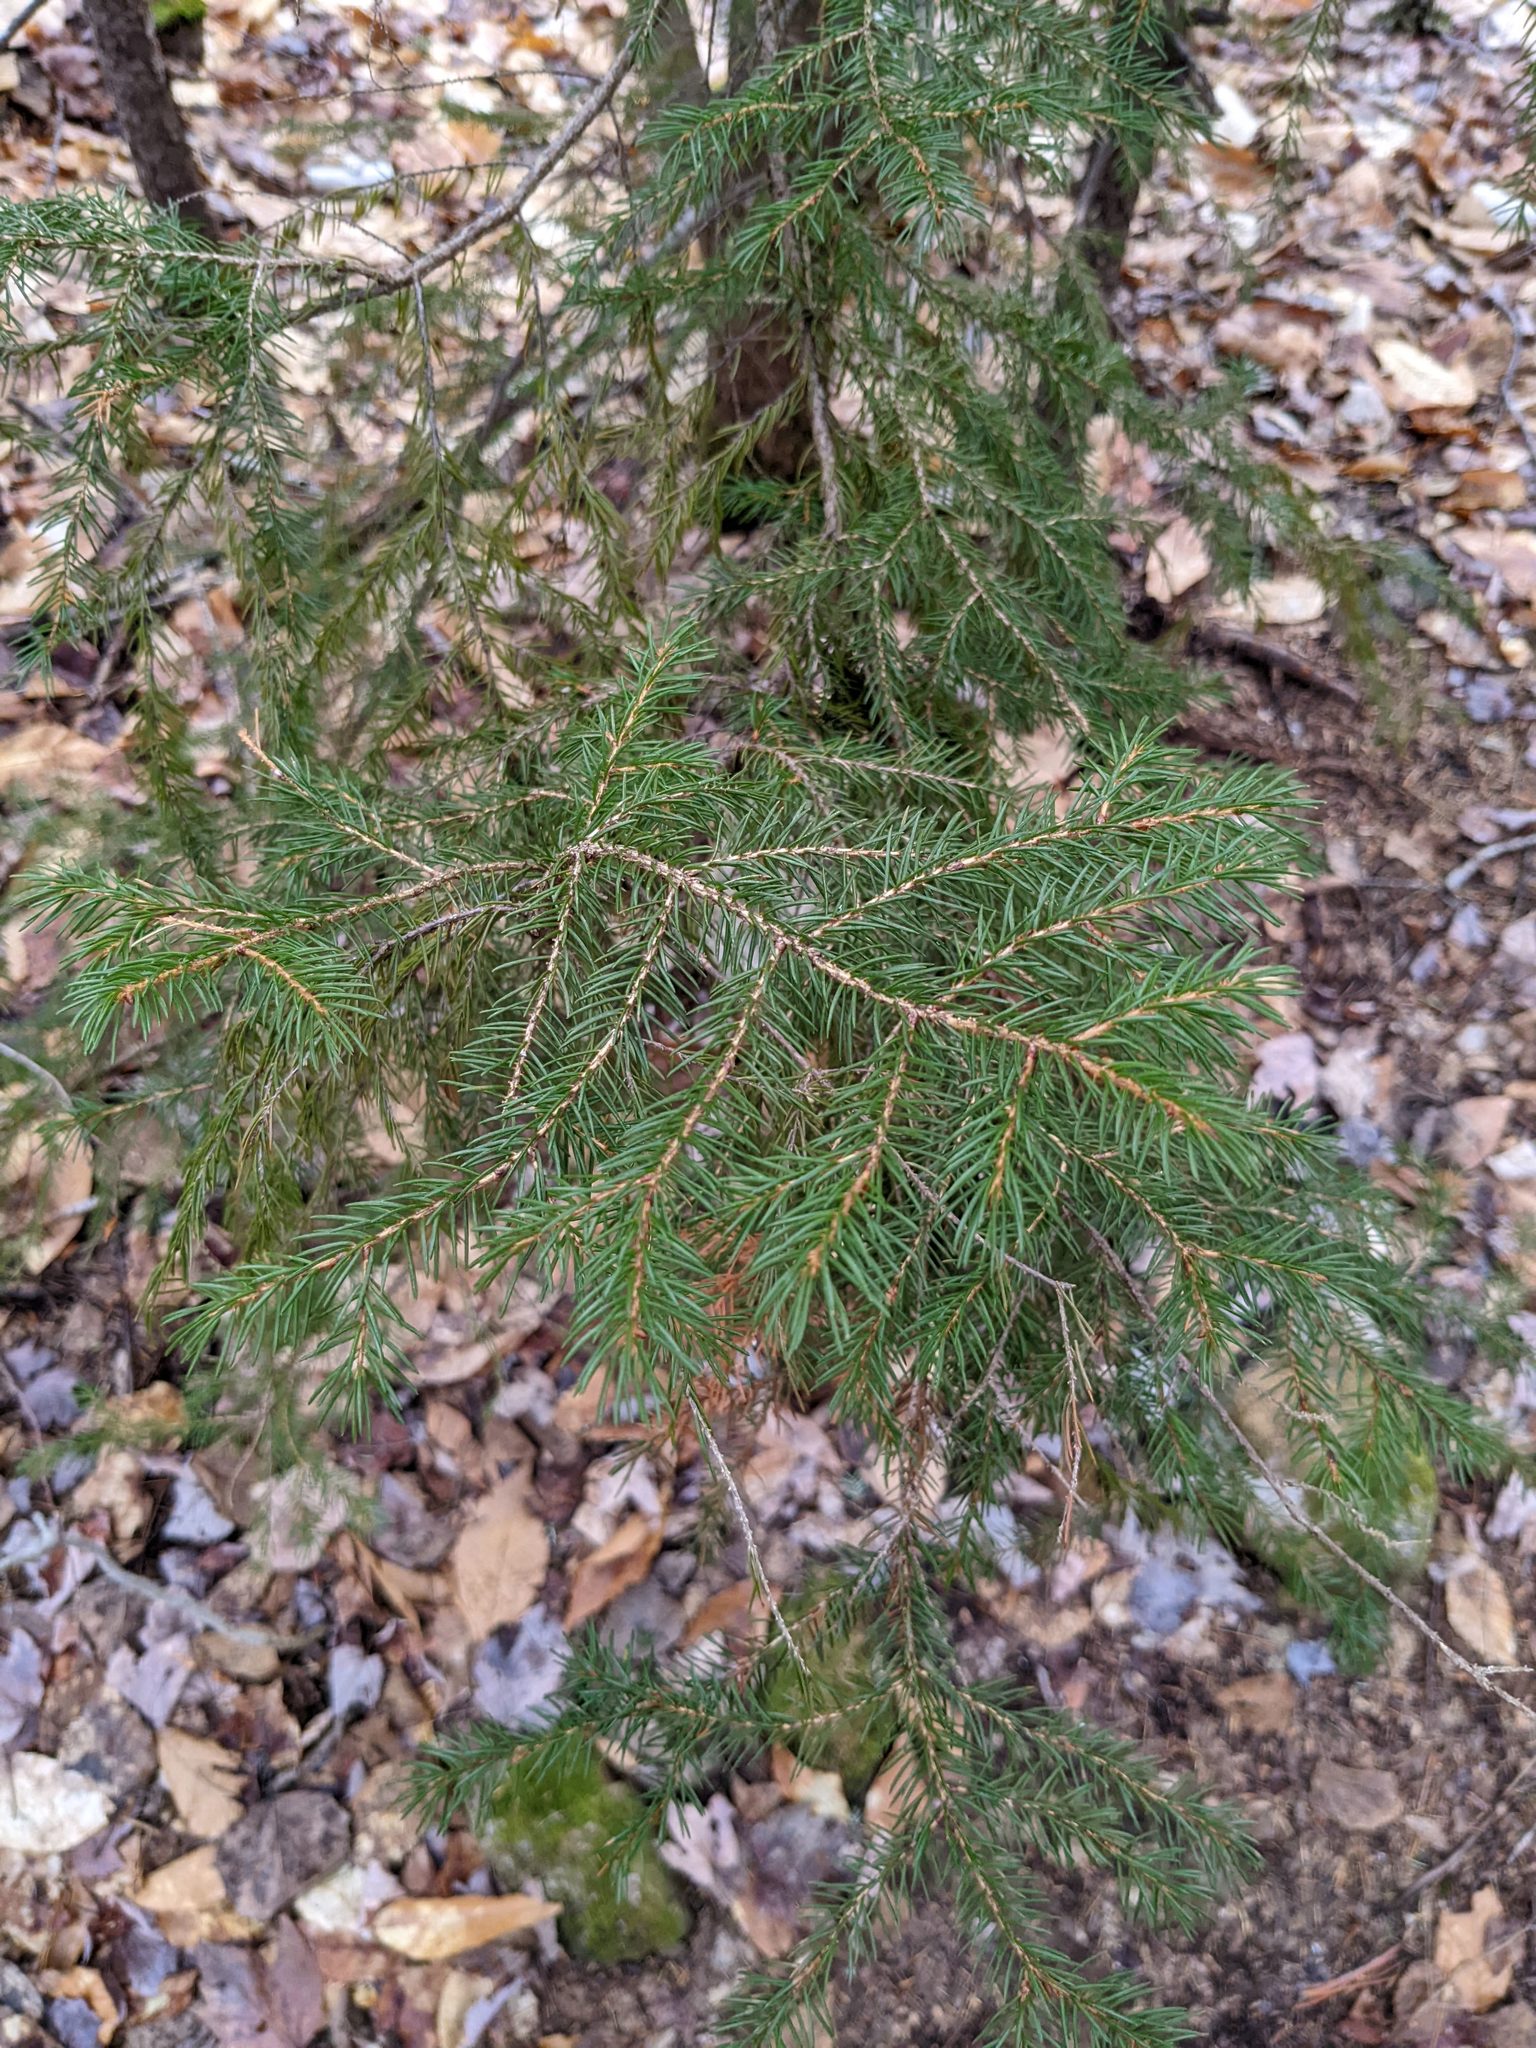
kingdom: Plantae
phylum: Tracheophyta
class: Pinopsida
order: Pinales
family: Pinaceae
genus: Picea
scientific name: Picea rubens
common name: Red spruce
